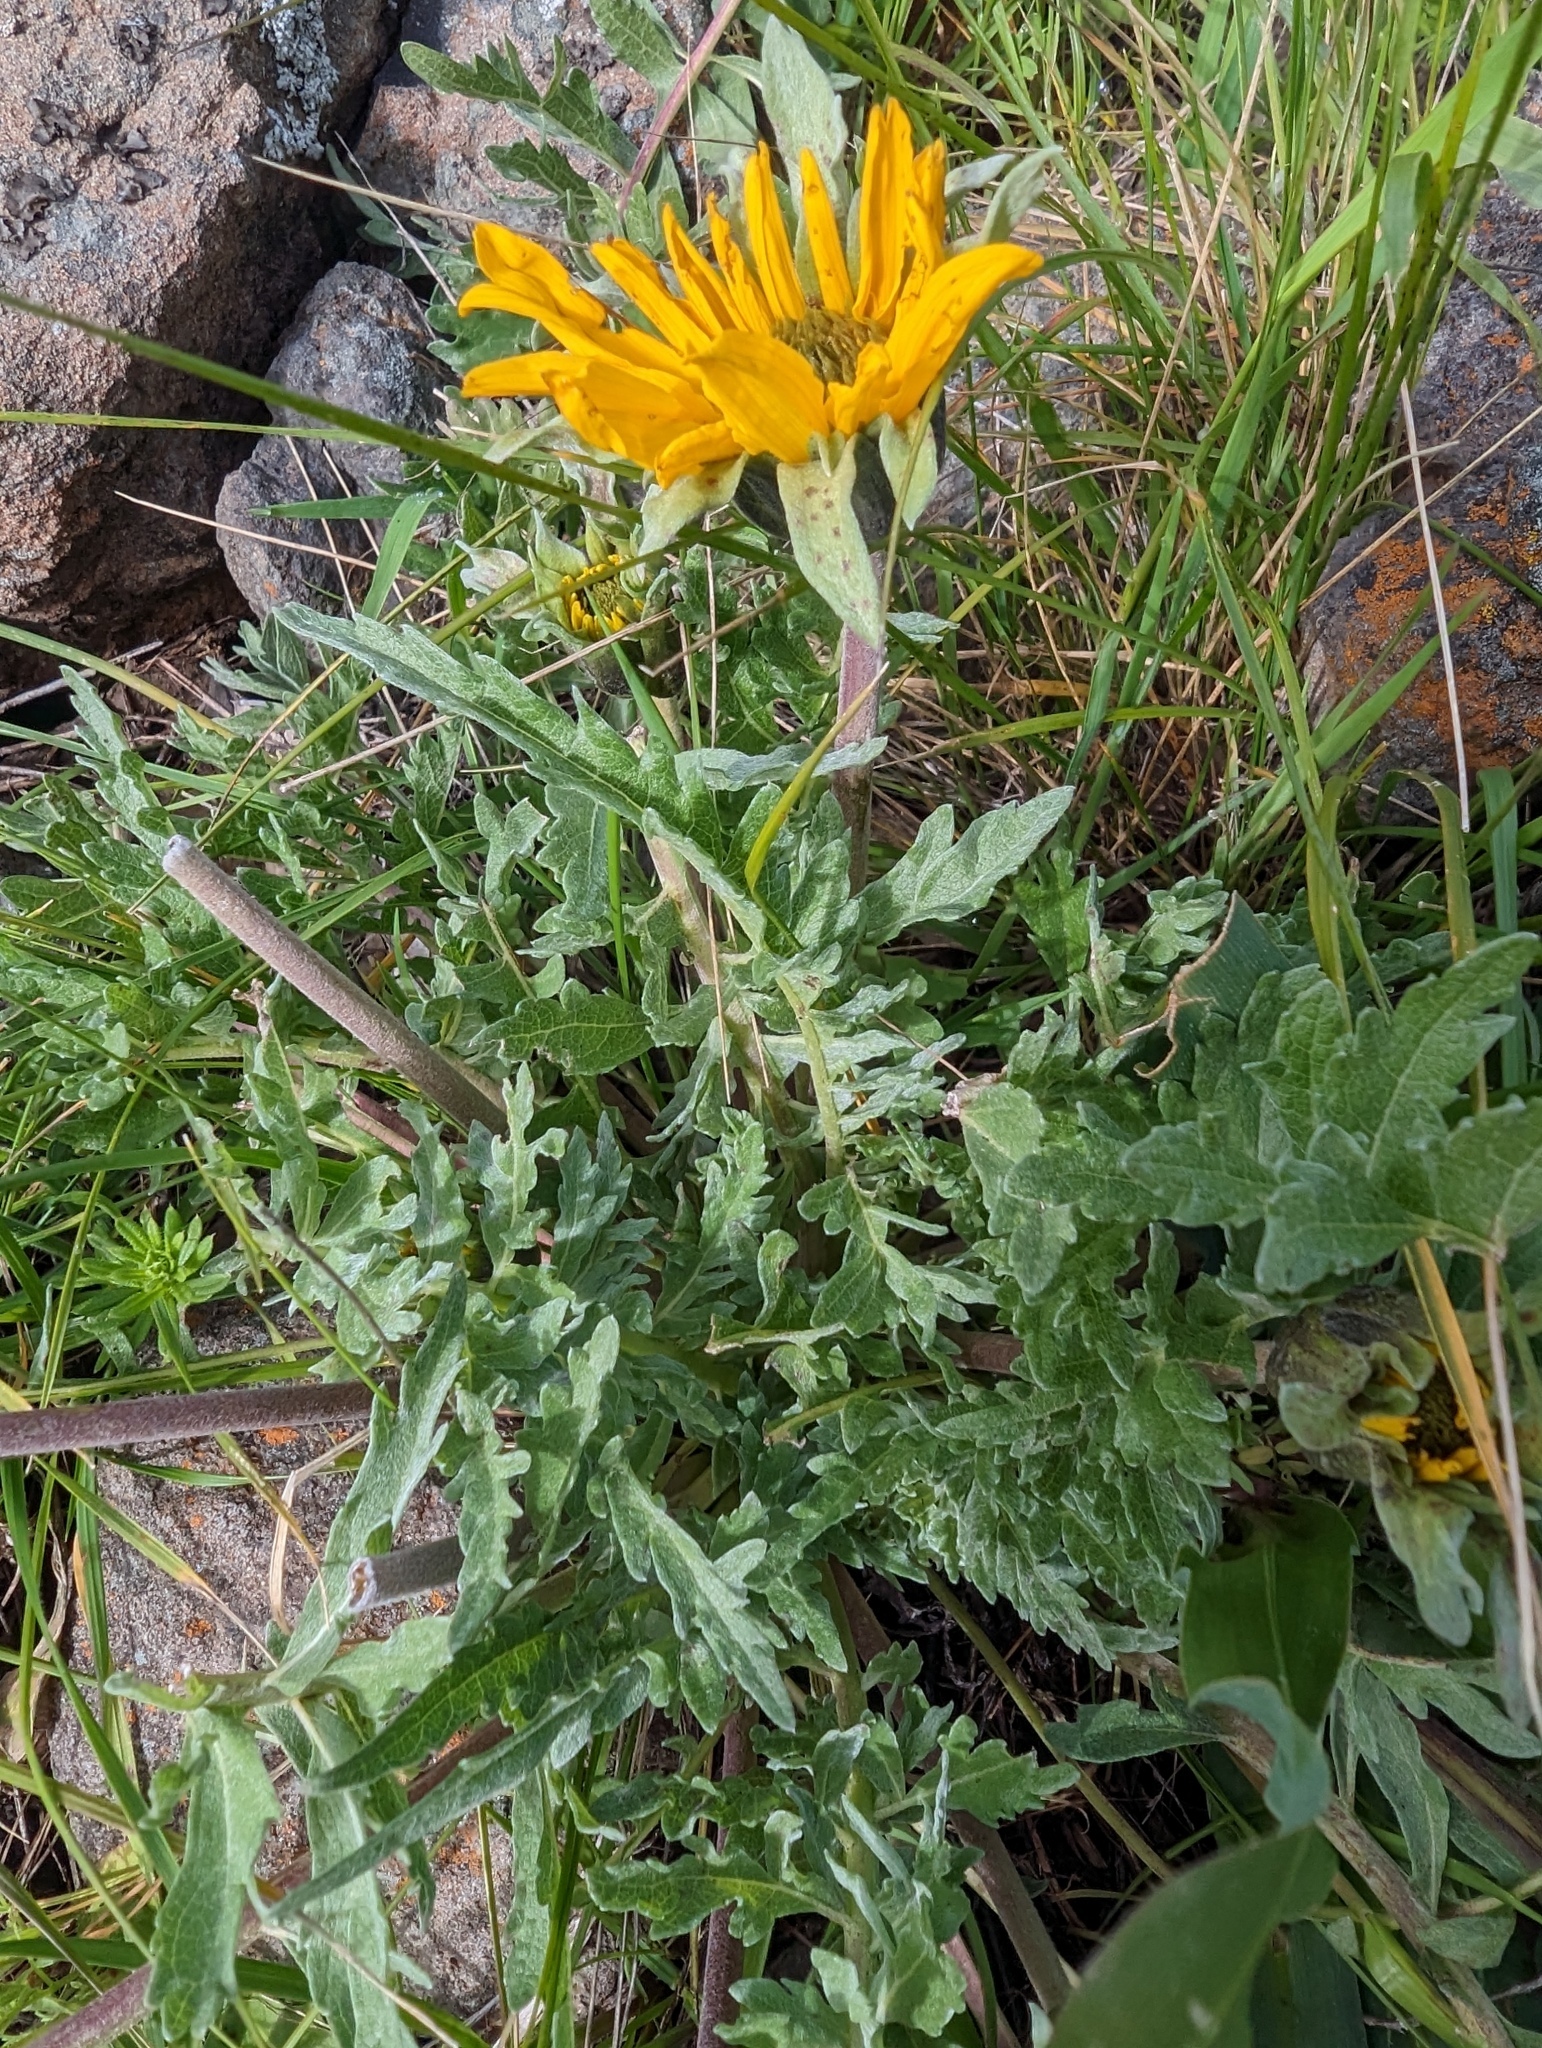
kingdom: Plantae
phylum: Tracheophyta
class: Magnoliopsida
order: Asterales
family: Asteraceae
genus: Balsamorhiza
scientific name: Balsamorhiza macrolepis
